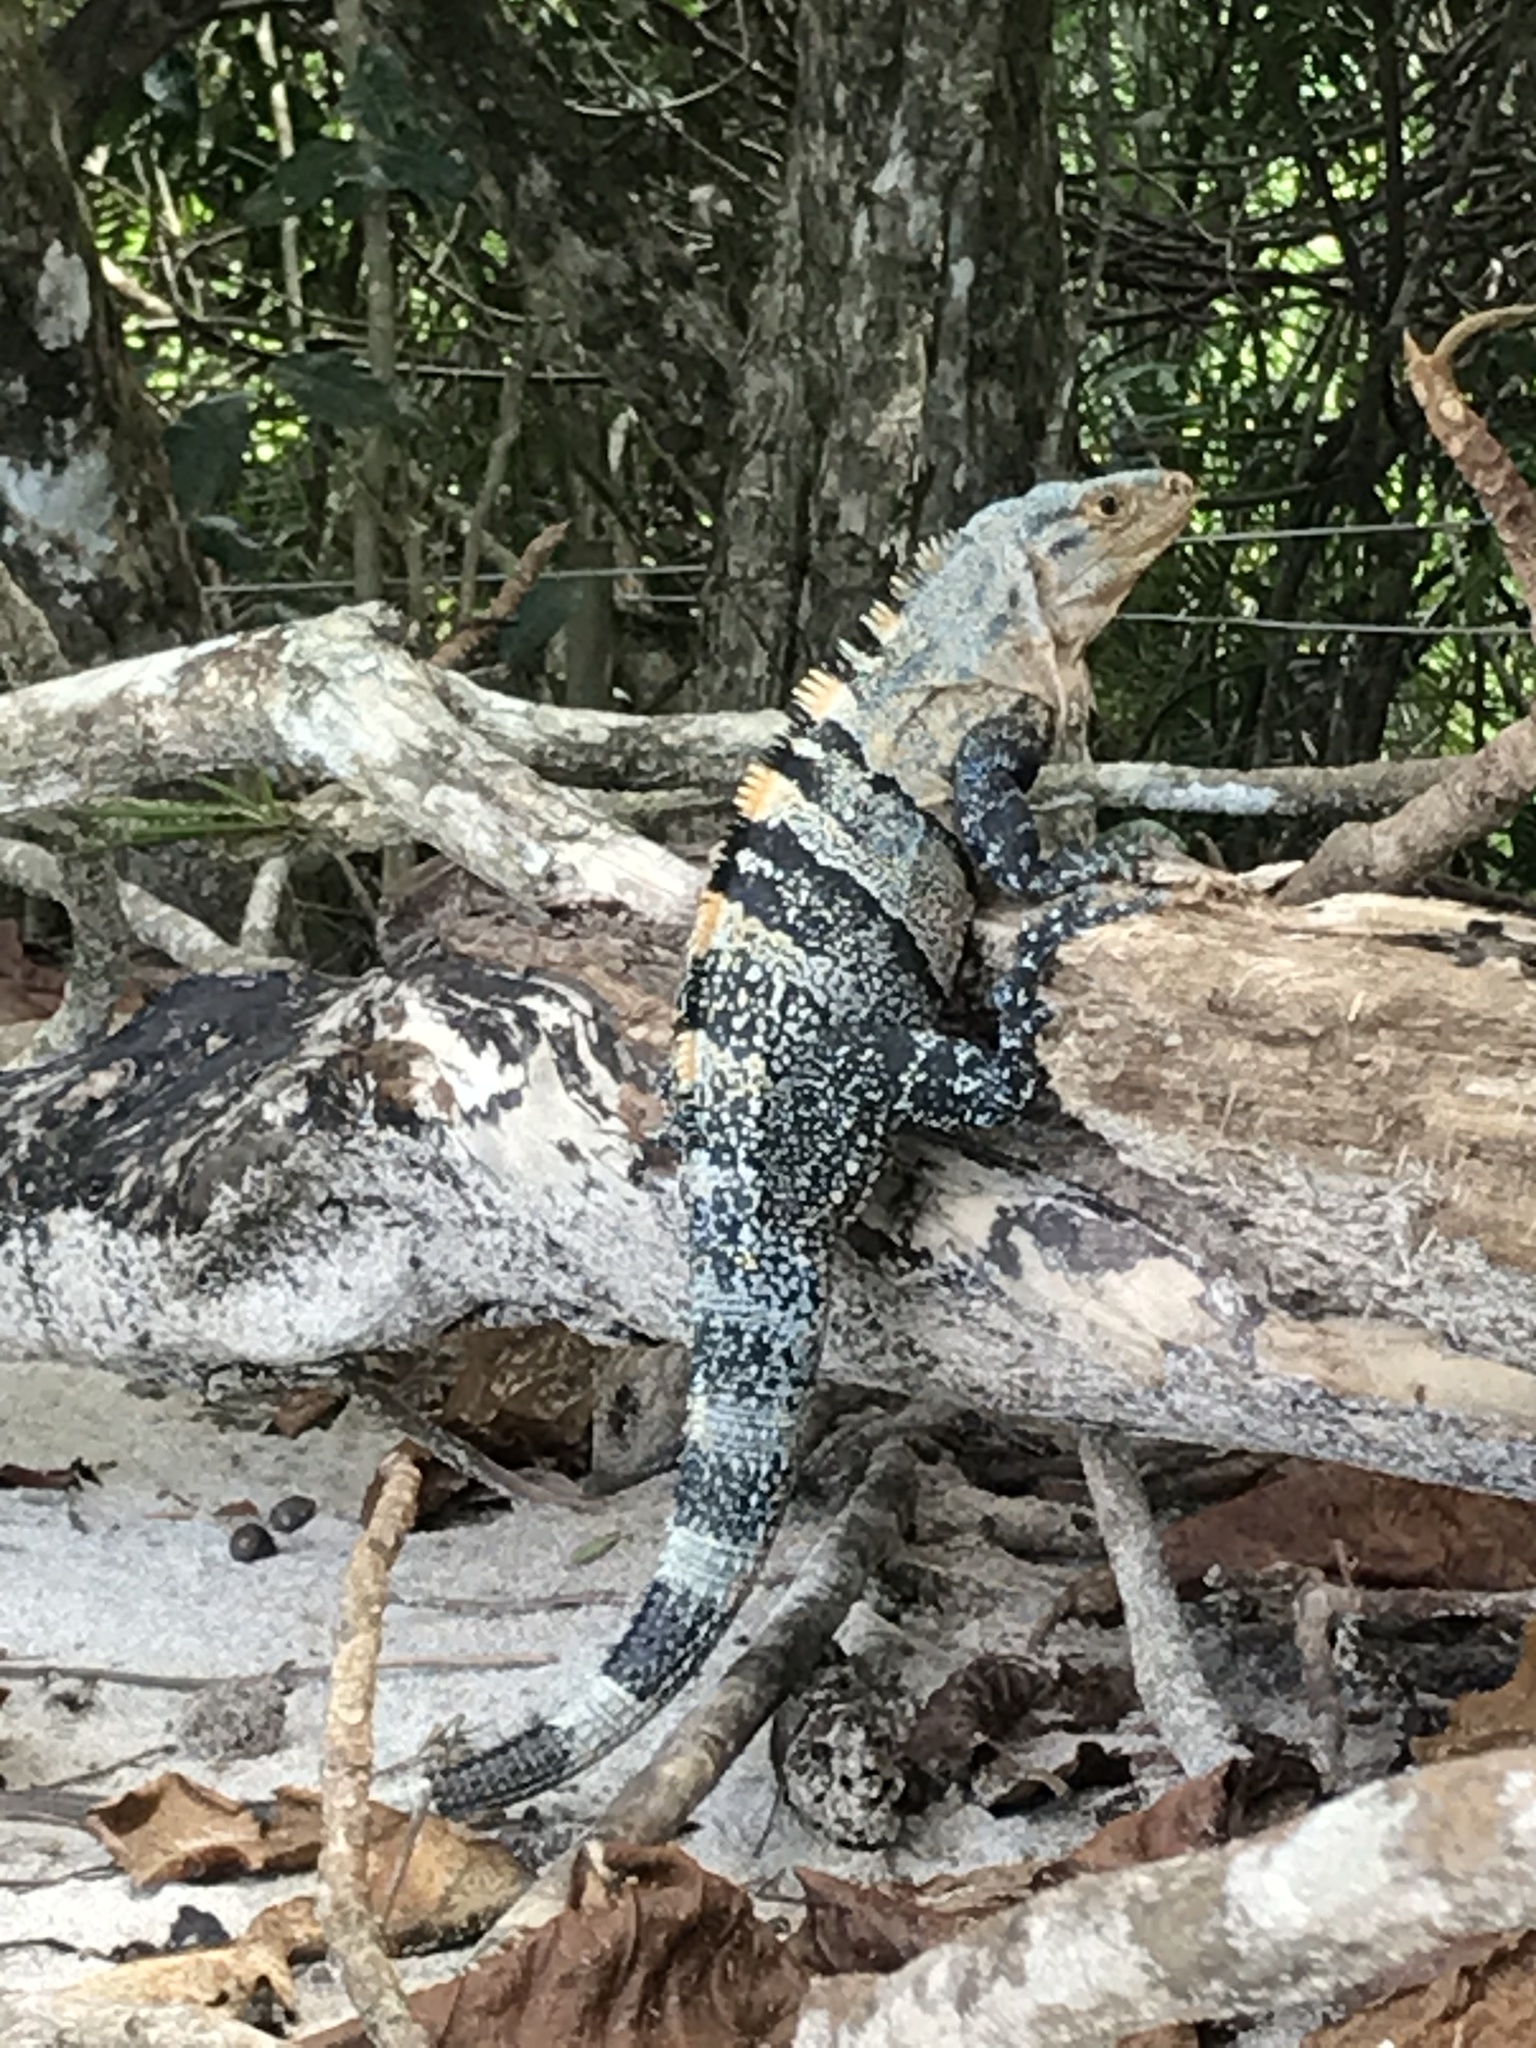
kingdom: Animalia
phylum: Chordata
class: Squamata
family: Iguanidae
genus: Ctenosaura
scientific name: Ctenosaura similis
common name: Black spiny-tailed iguana
